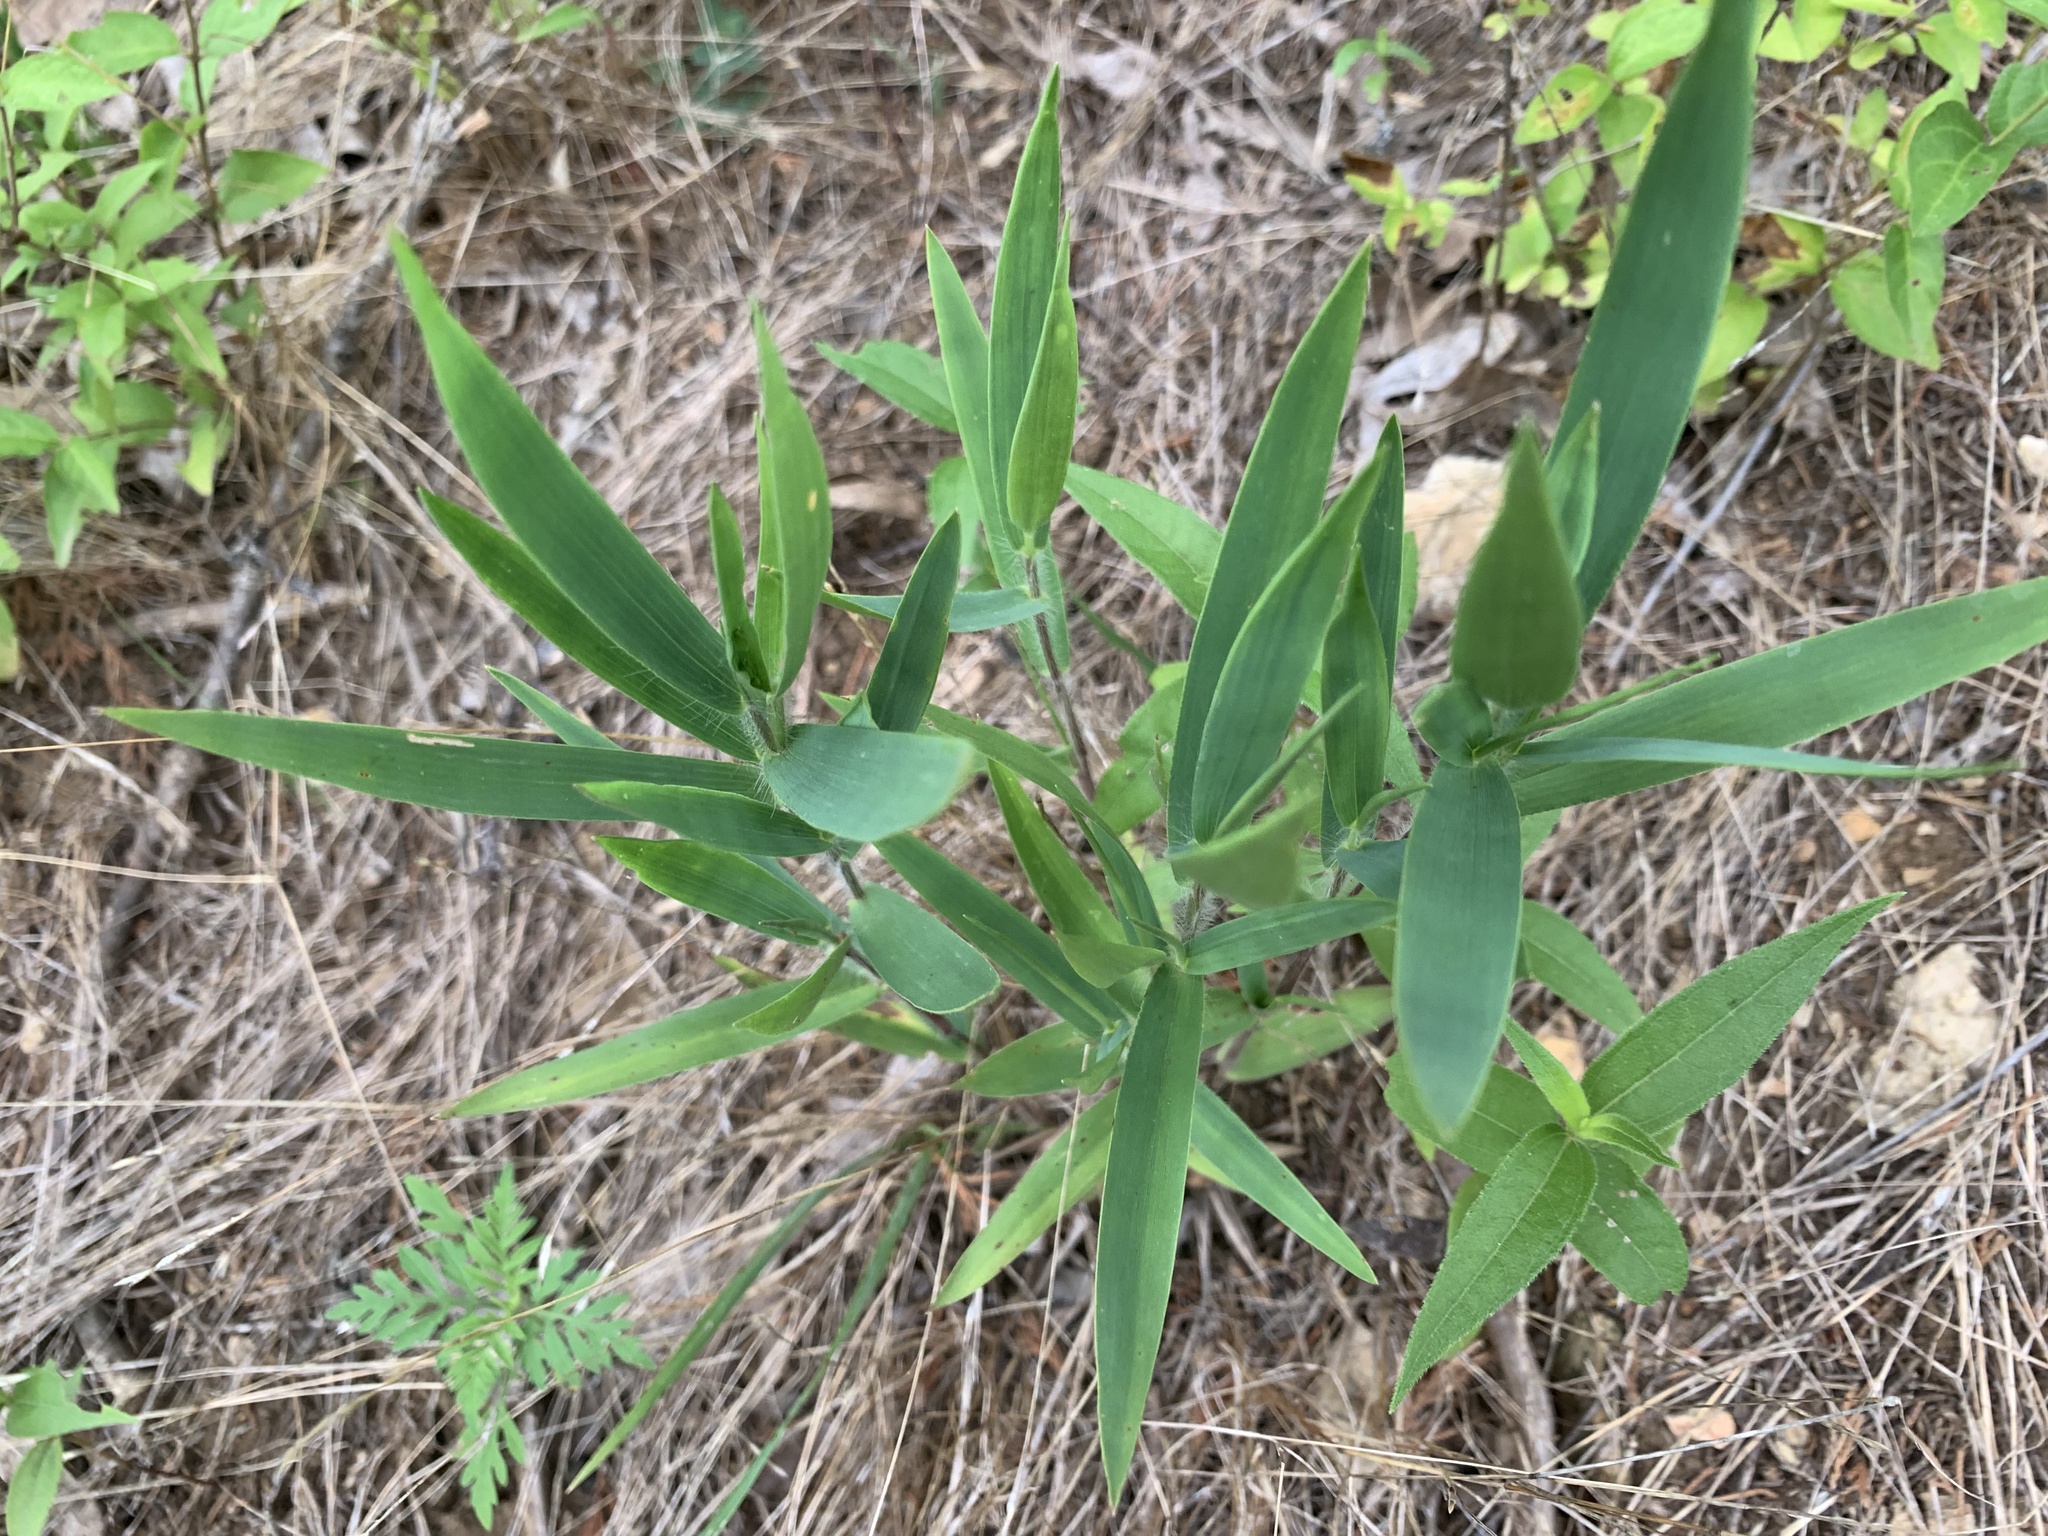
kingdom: Plantae
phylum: Tracheophyta
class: Liliopsida
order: Poales
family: Poaceae
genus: Dichanthelium
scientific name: Dichanthelium scribnerianum
